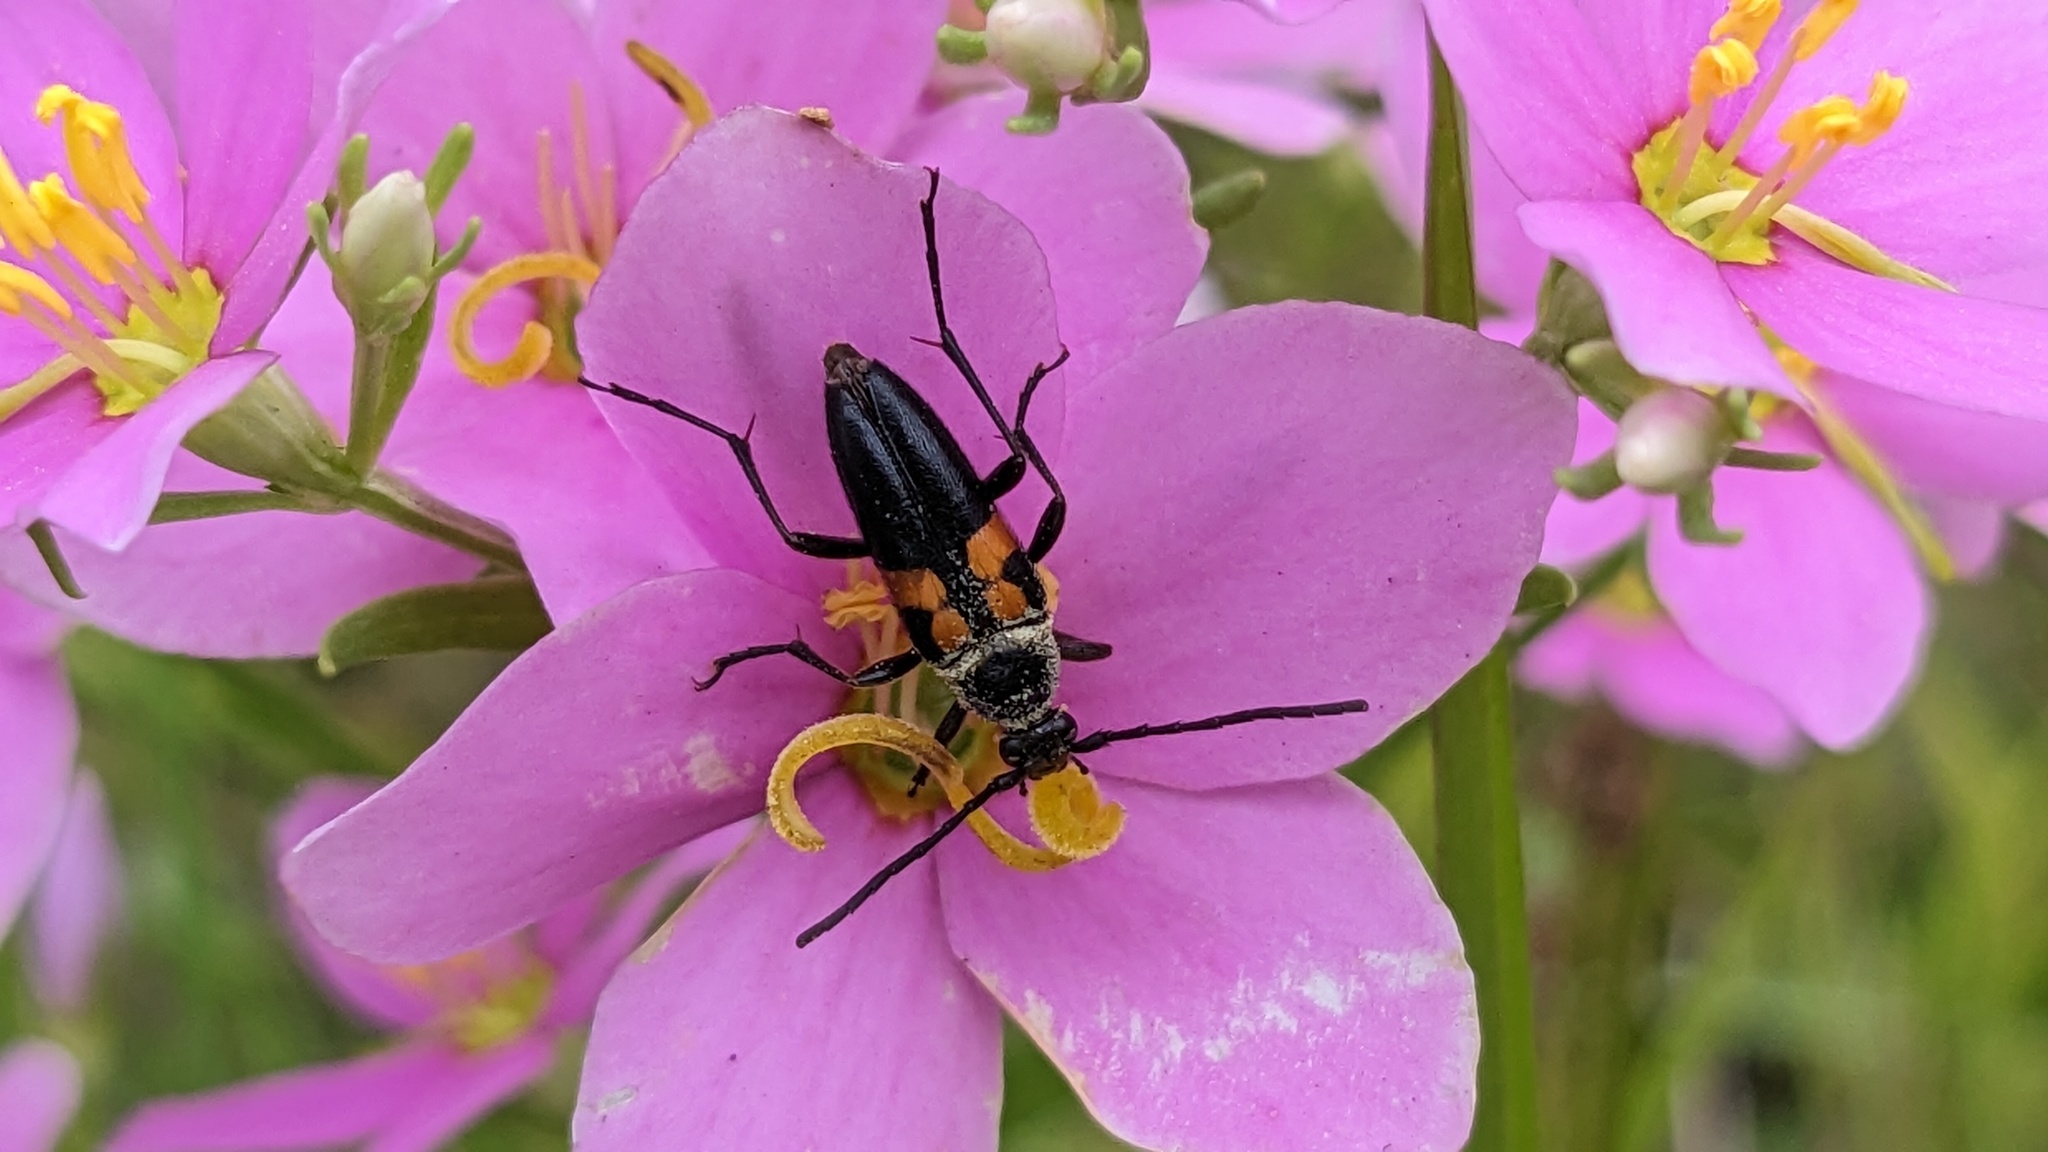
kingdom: Animalia
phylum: Arthropoda
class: Insecta
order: Coleoptera
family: Cerambycidae
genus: Typocerus
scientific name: Typocerus lunulatus
